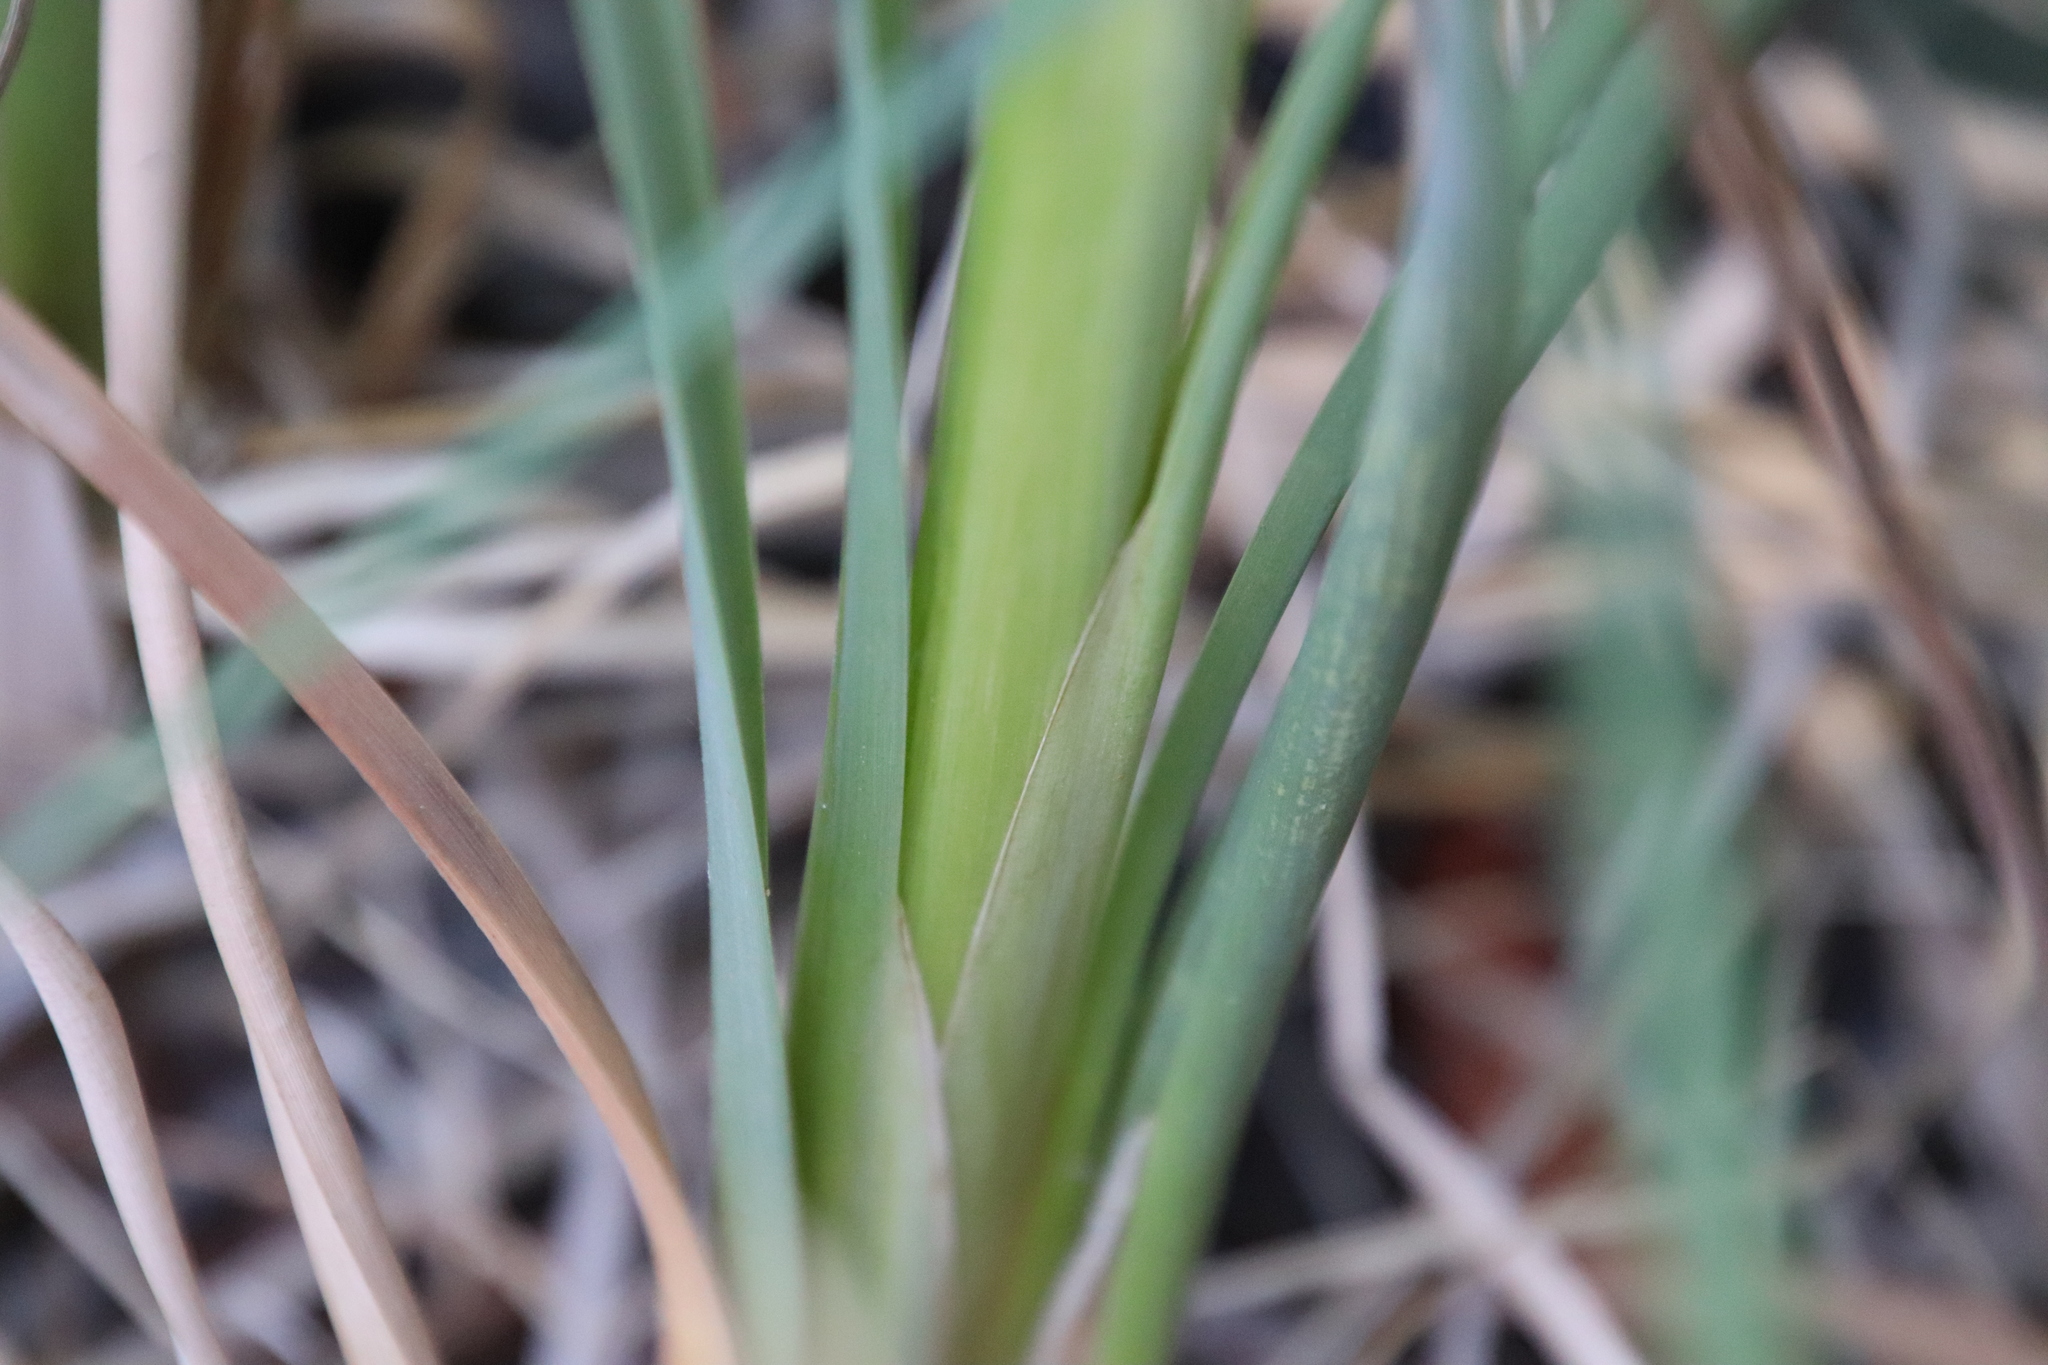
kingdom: Plantae
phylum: Tracheophyta
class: Liliopsida
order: Poales
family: Typhaceae
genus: Typha
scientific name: Typha domingensis
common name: Southern cattail
